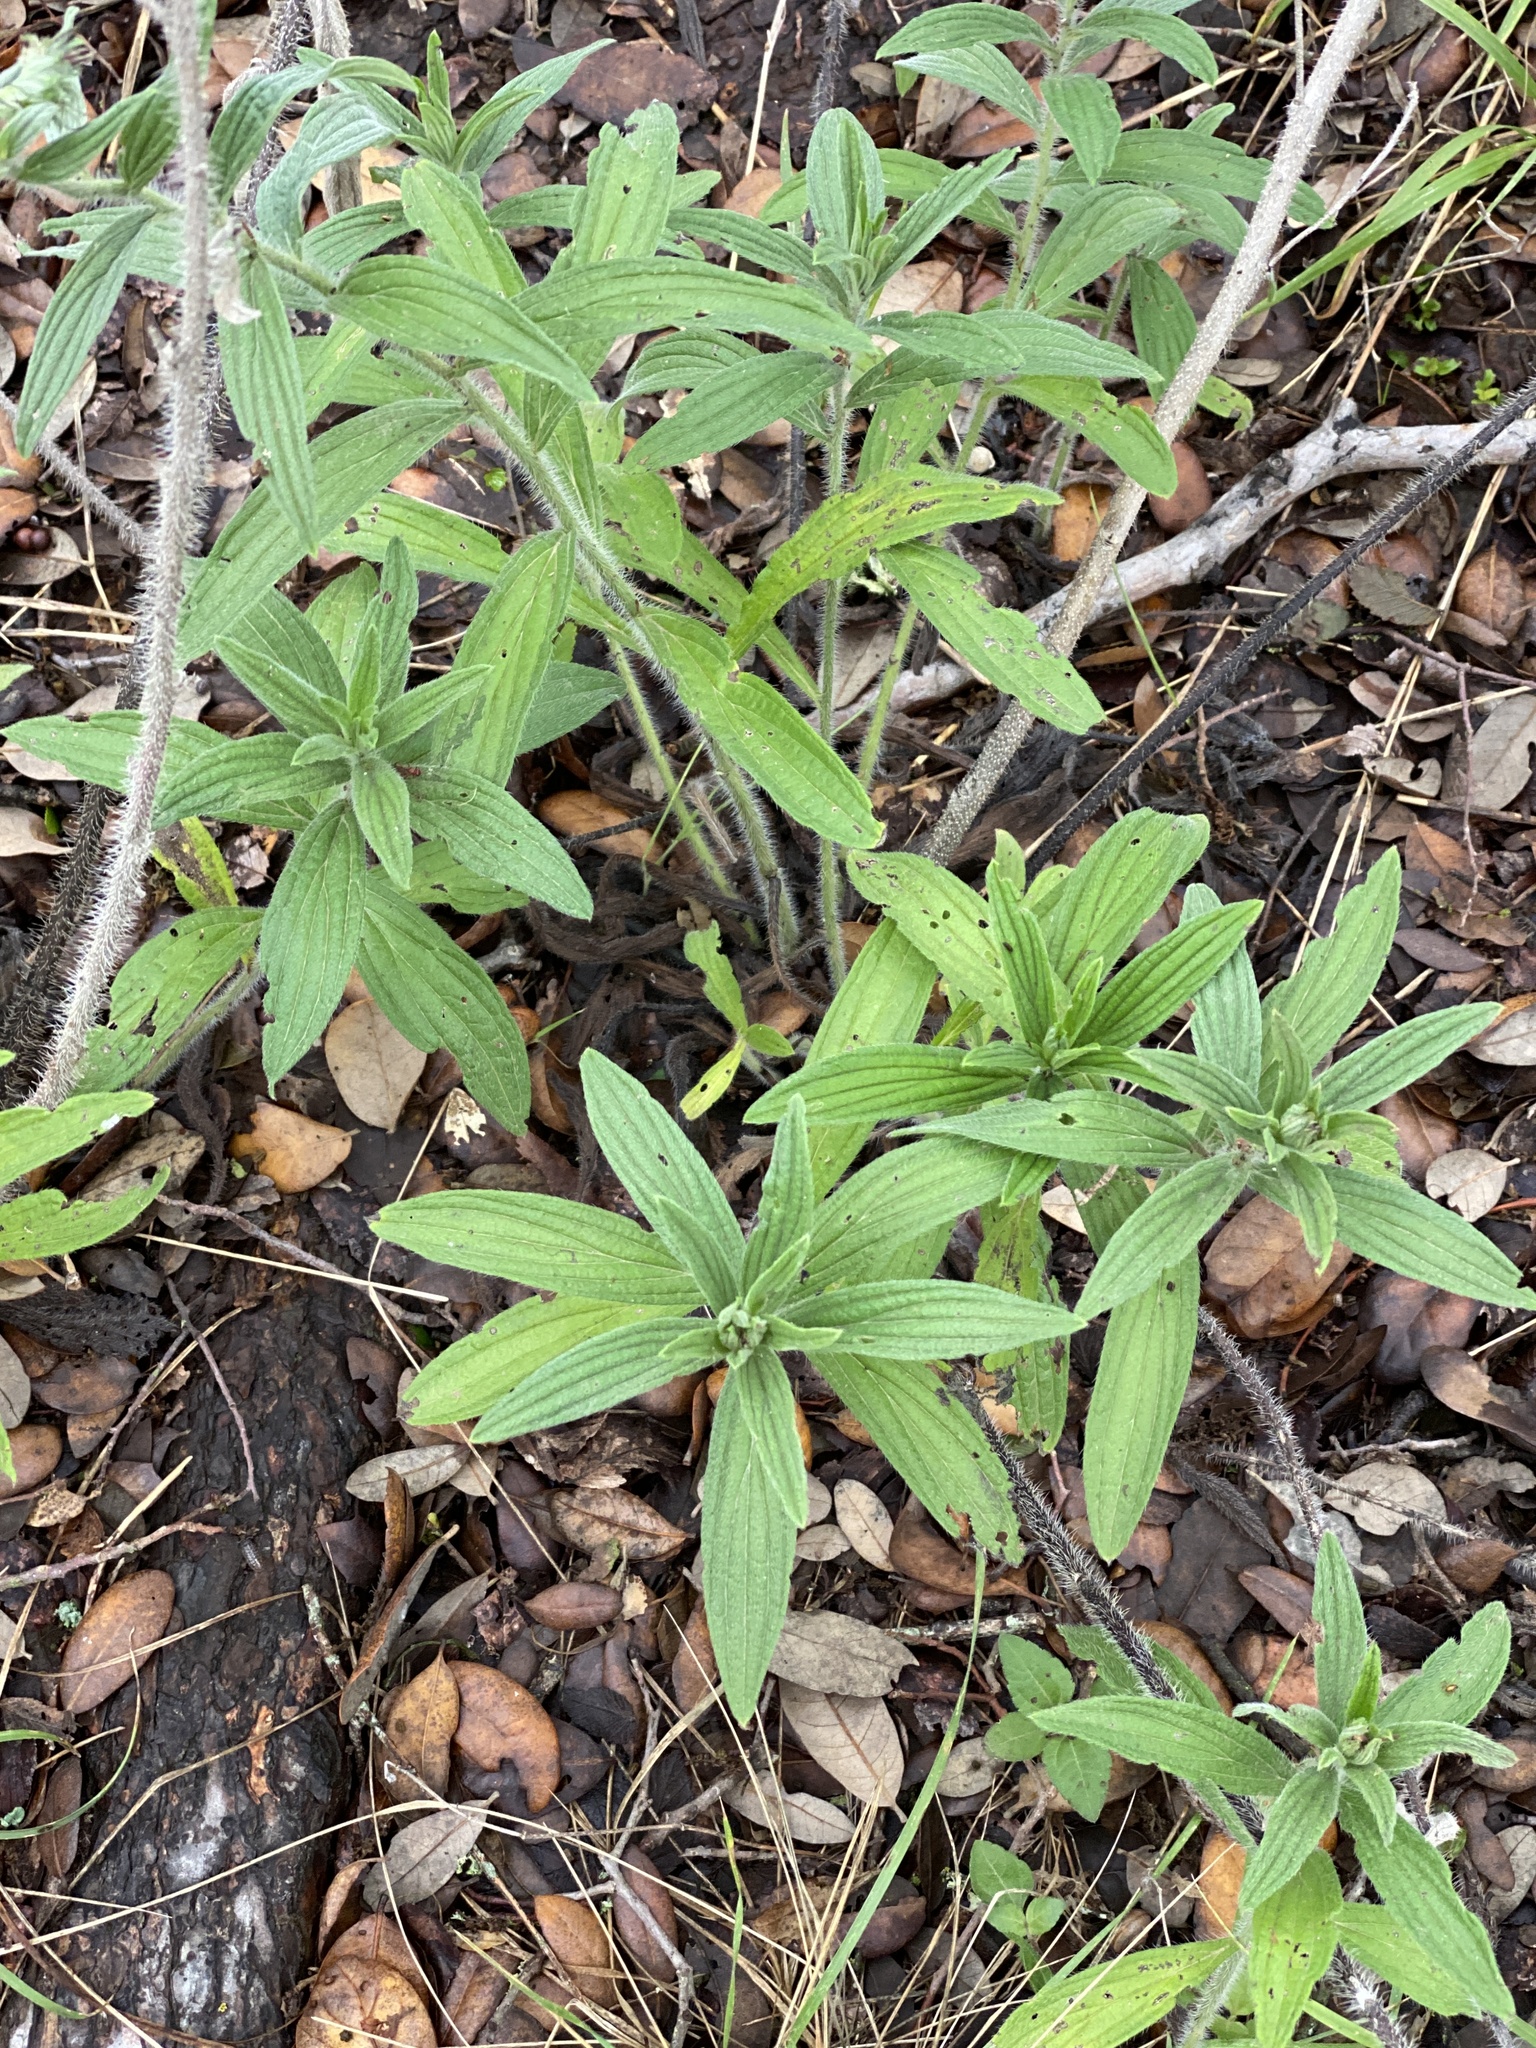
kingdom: Plantae
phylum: Tracheophyta
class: Magnoliopsida
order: Boraginales
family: Boraginaceae
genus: Lithospermum
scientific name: Lithospermum caroliniense
